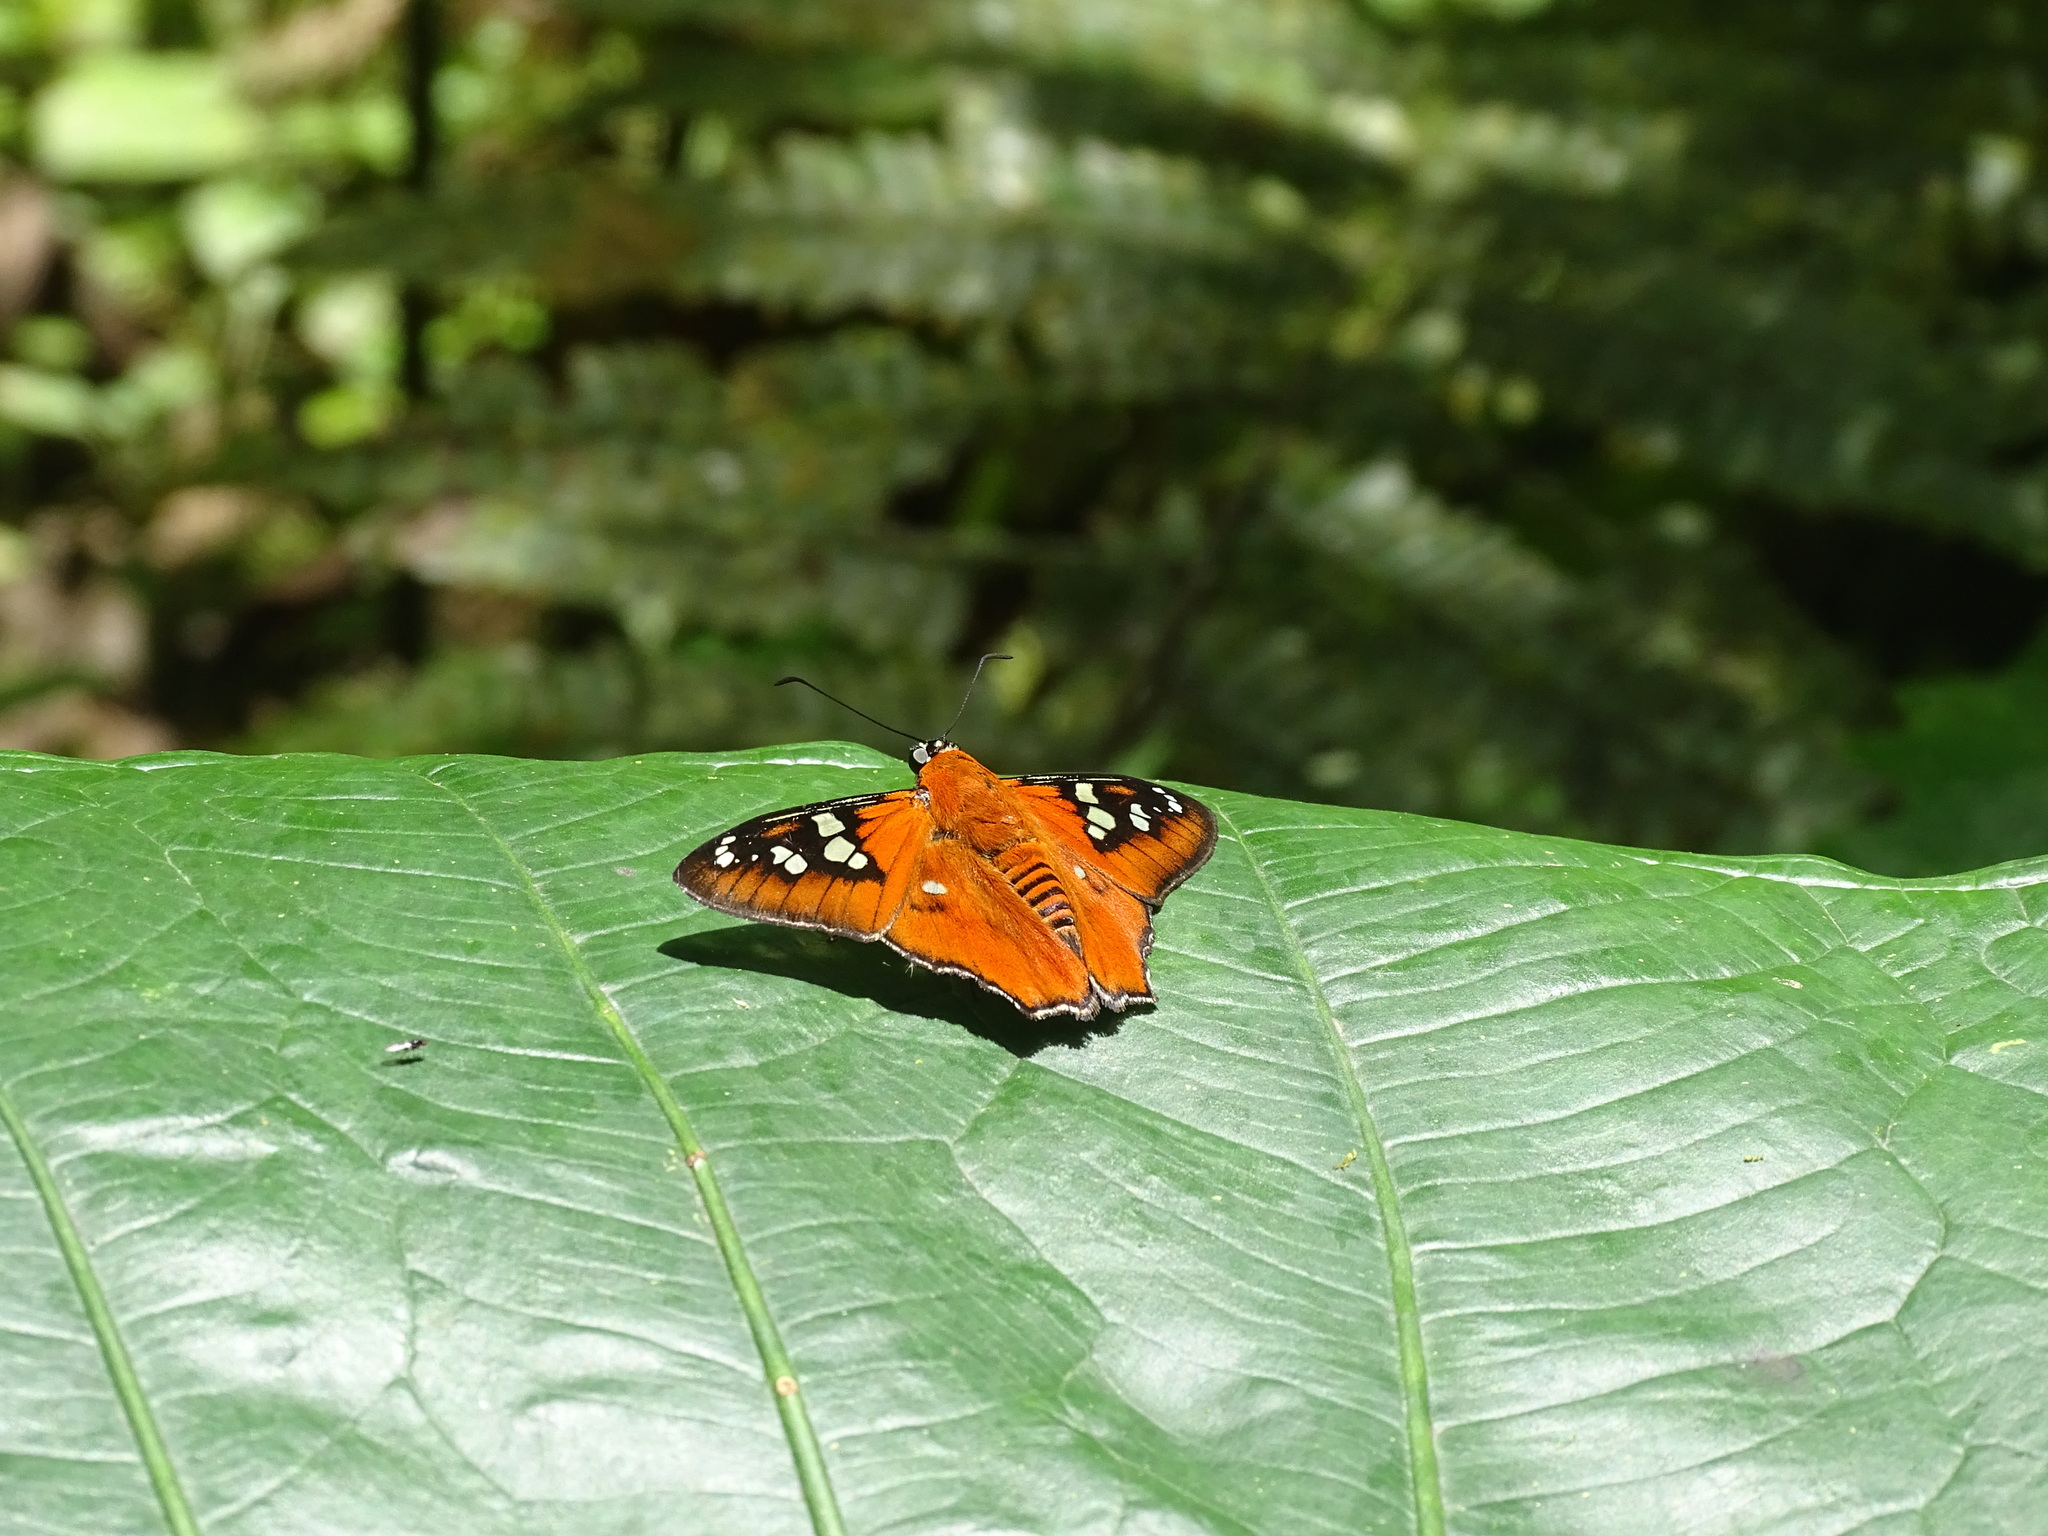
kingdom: Animalia
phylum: Arthropoda
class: Insecta
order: Lepidoptera
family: Hesperiidae
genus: Myscelus
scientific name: Myscelus belti
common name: Belt's myscelus
